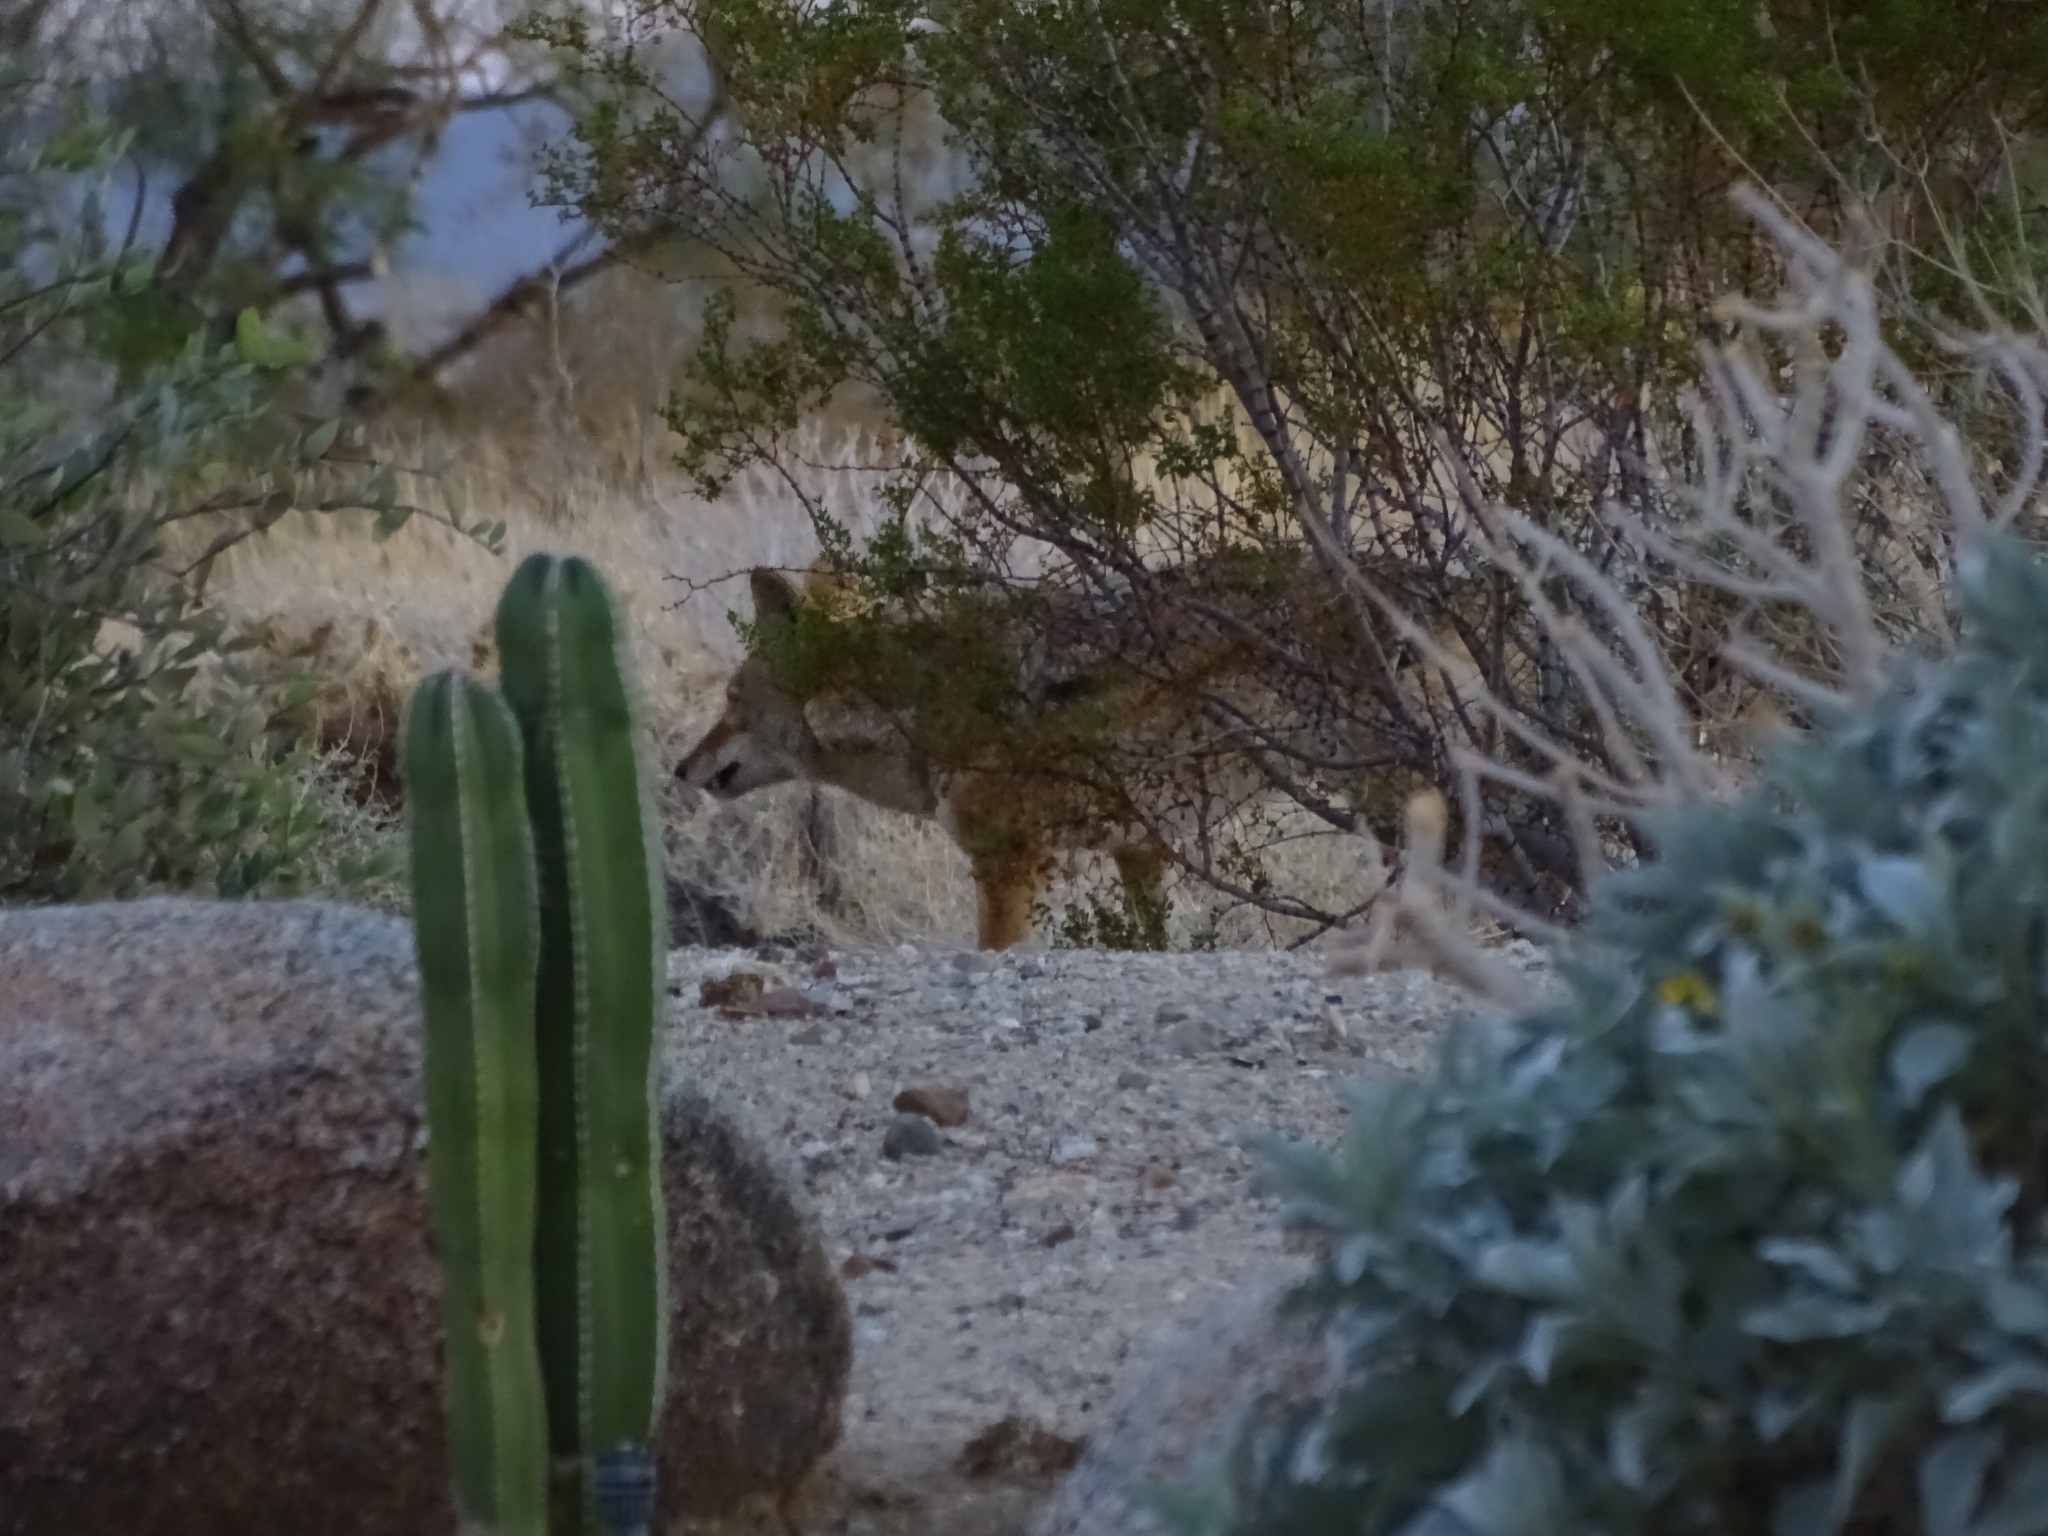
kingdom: Animalia
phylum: Chordata
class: Mammalia
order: Carnivora
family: Canidae
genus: Canis
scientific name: Canis latrans
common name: Coyote
